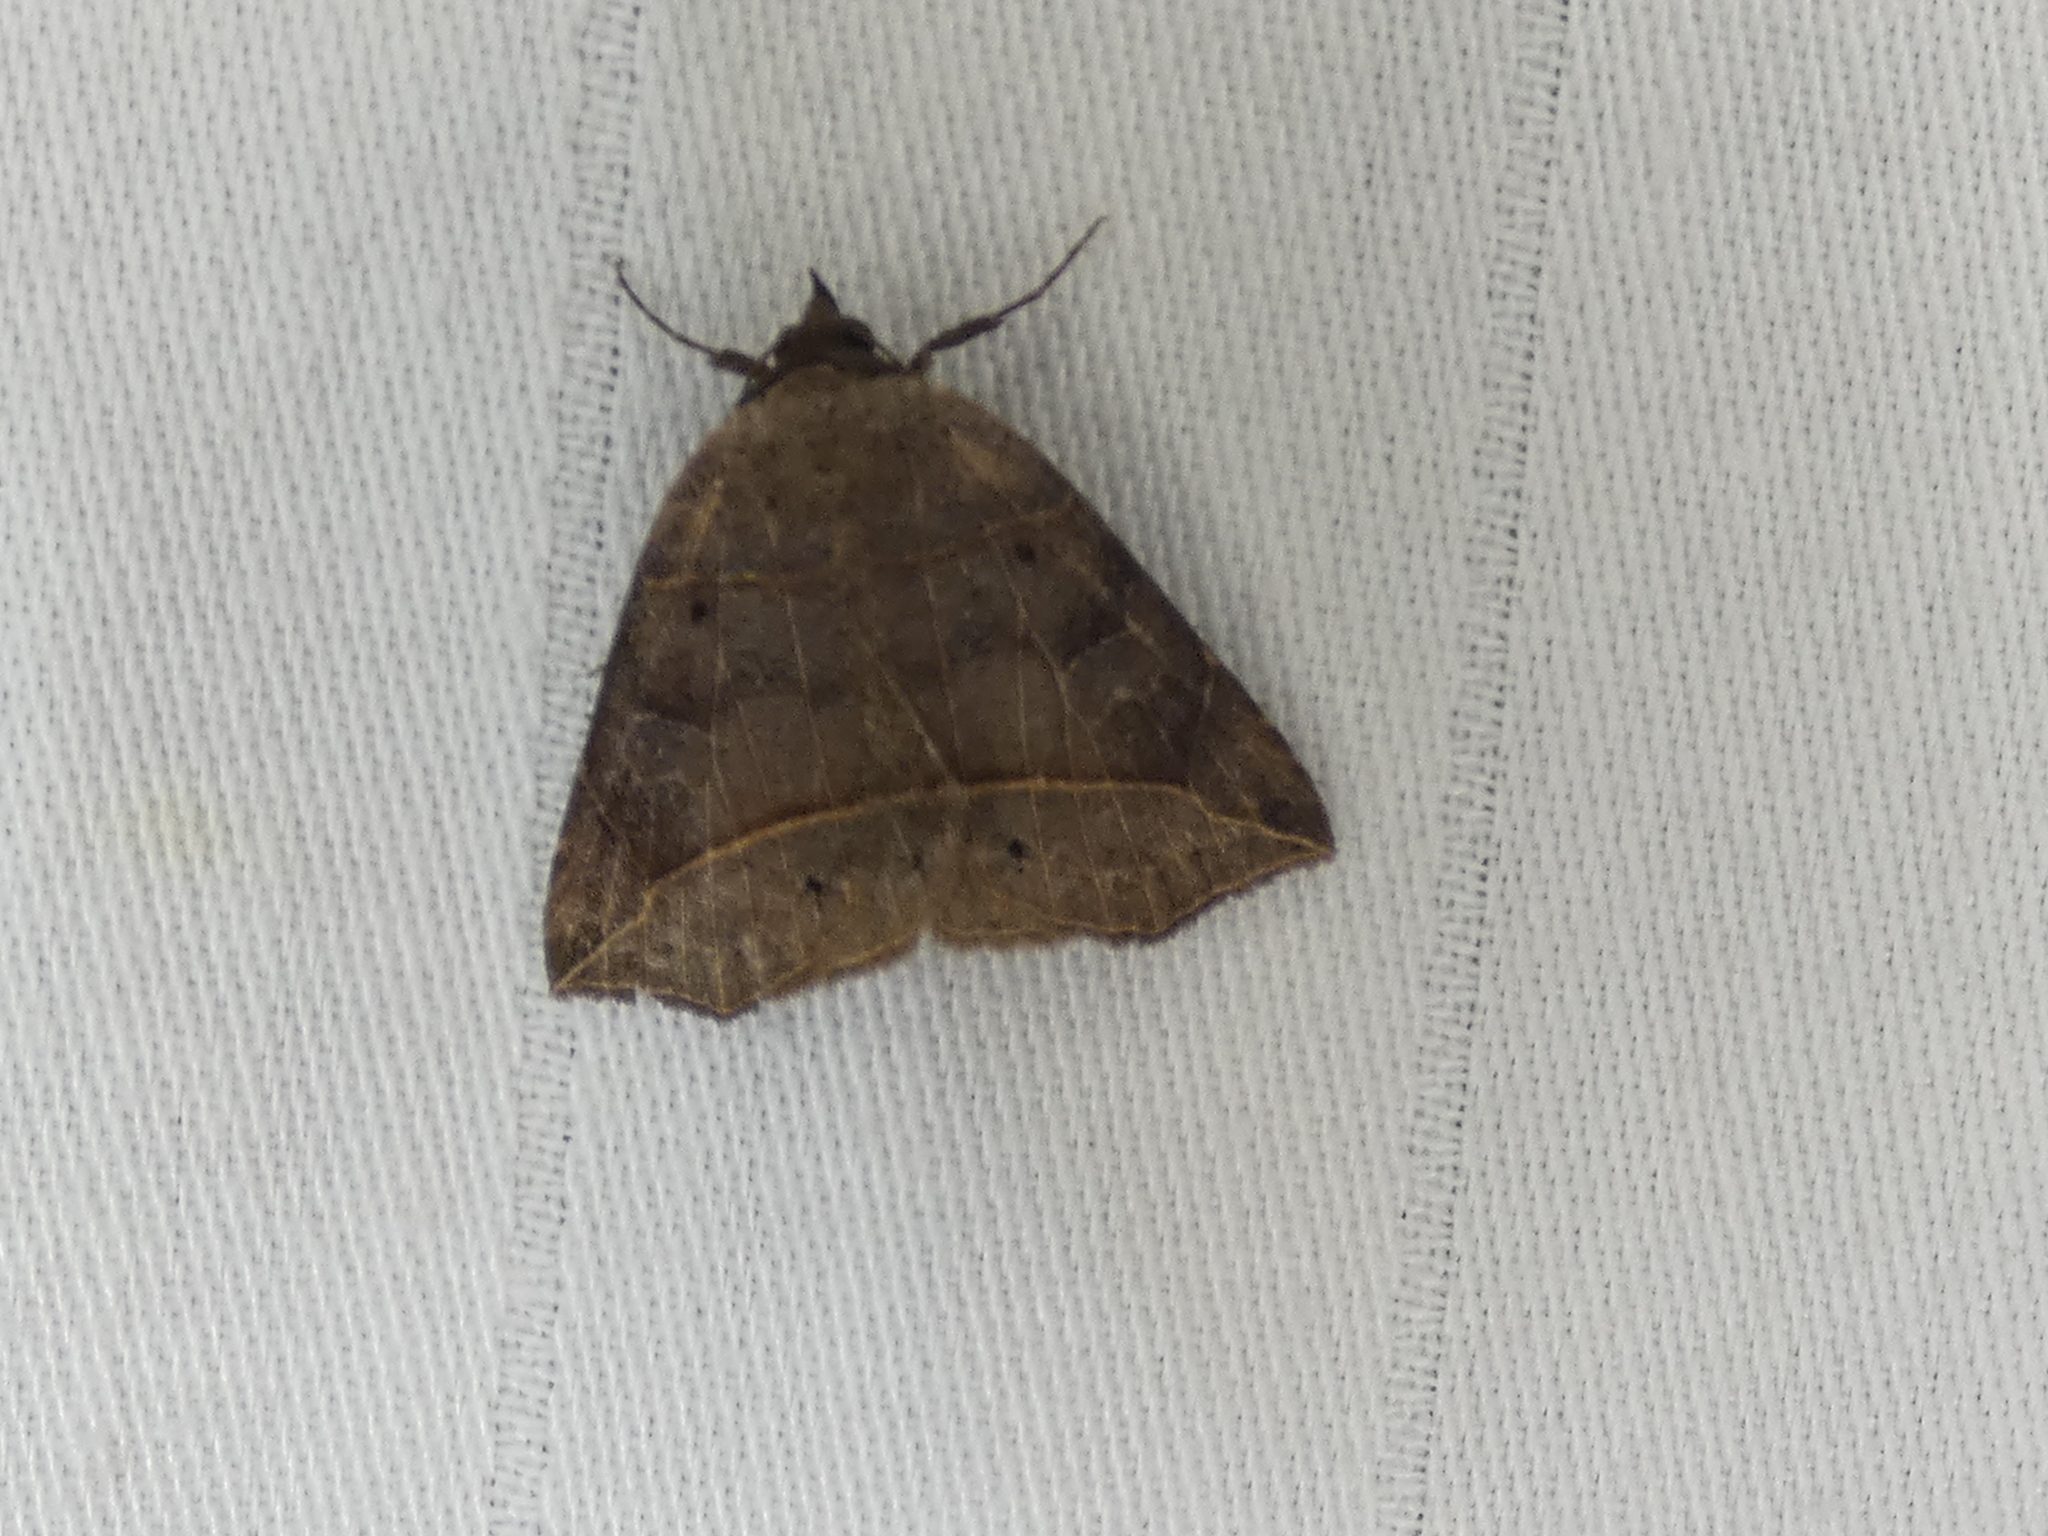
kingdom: Animalia
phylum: Arthropoda
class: Insecta
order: Lepidoptera
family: Erebidae
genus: Isogona
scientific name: Isogona tenuis
